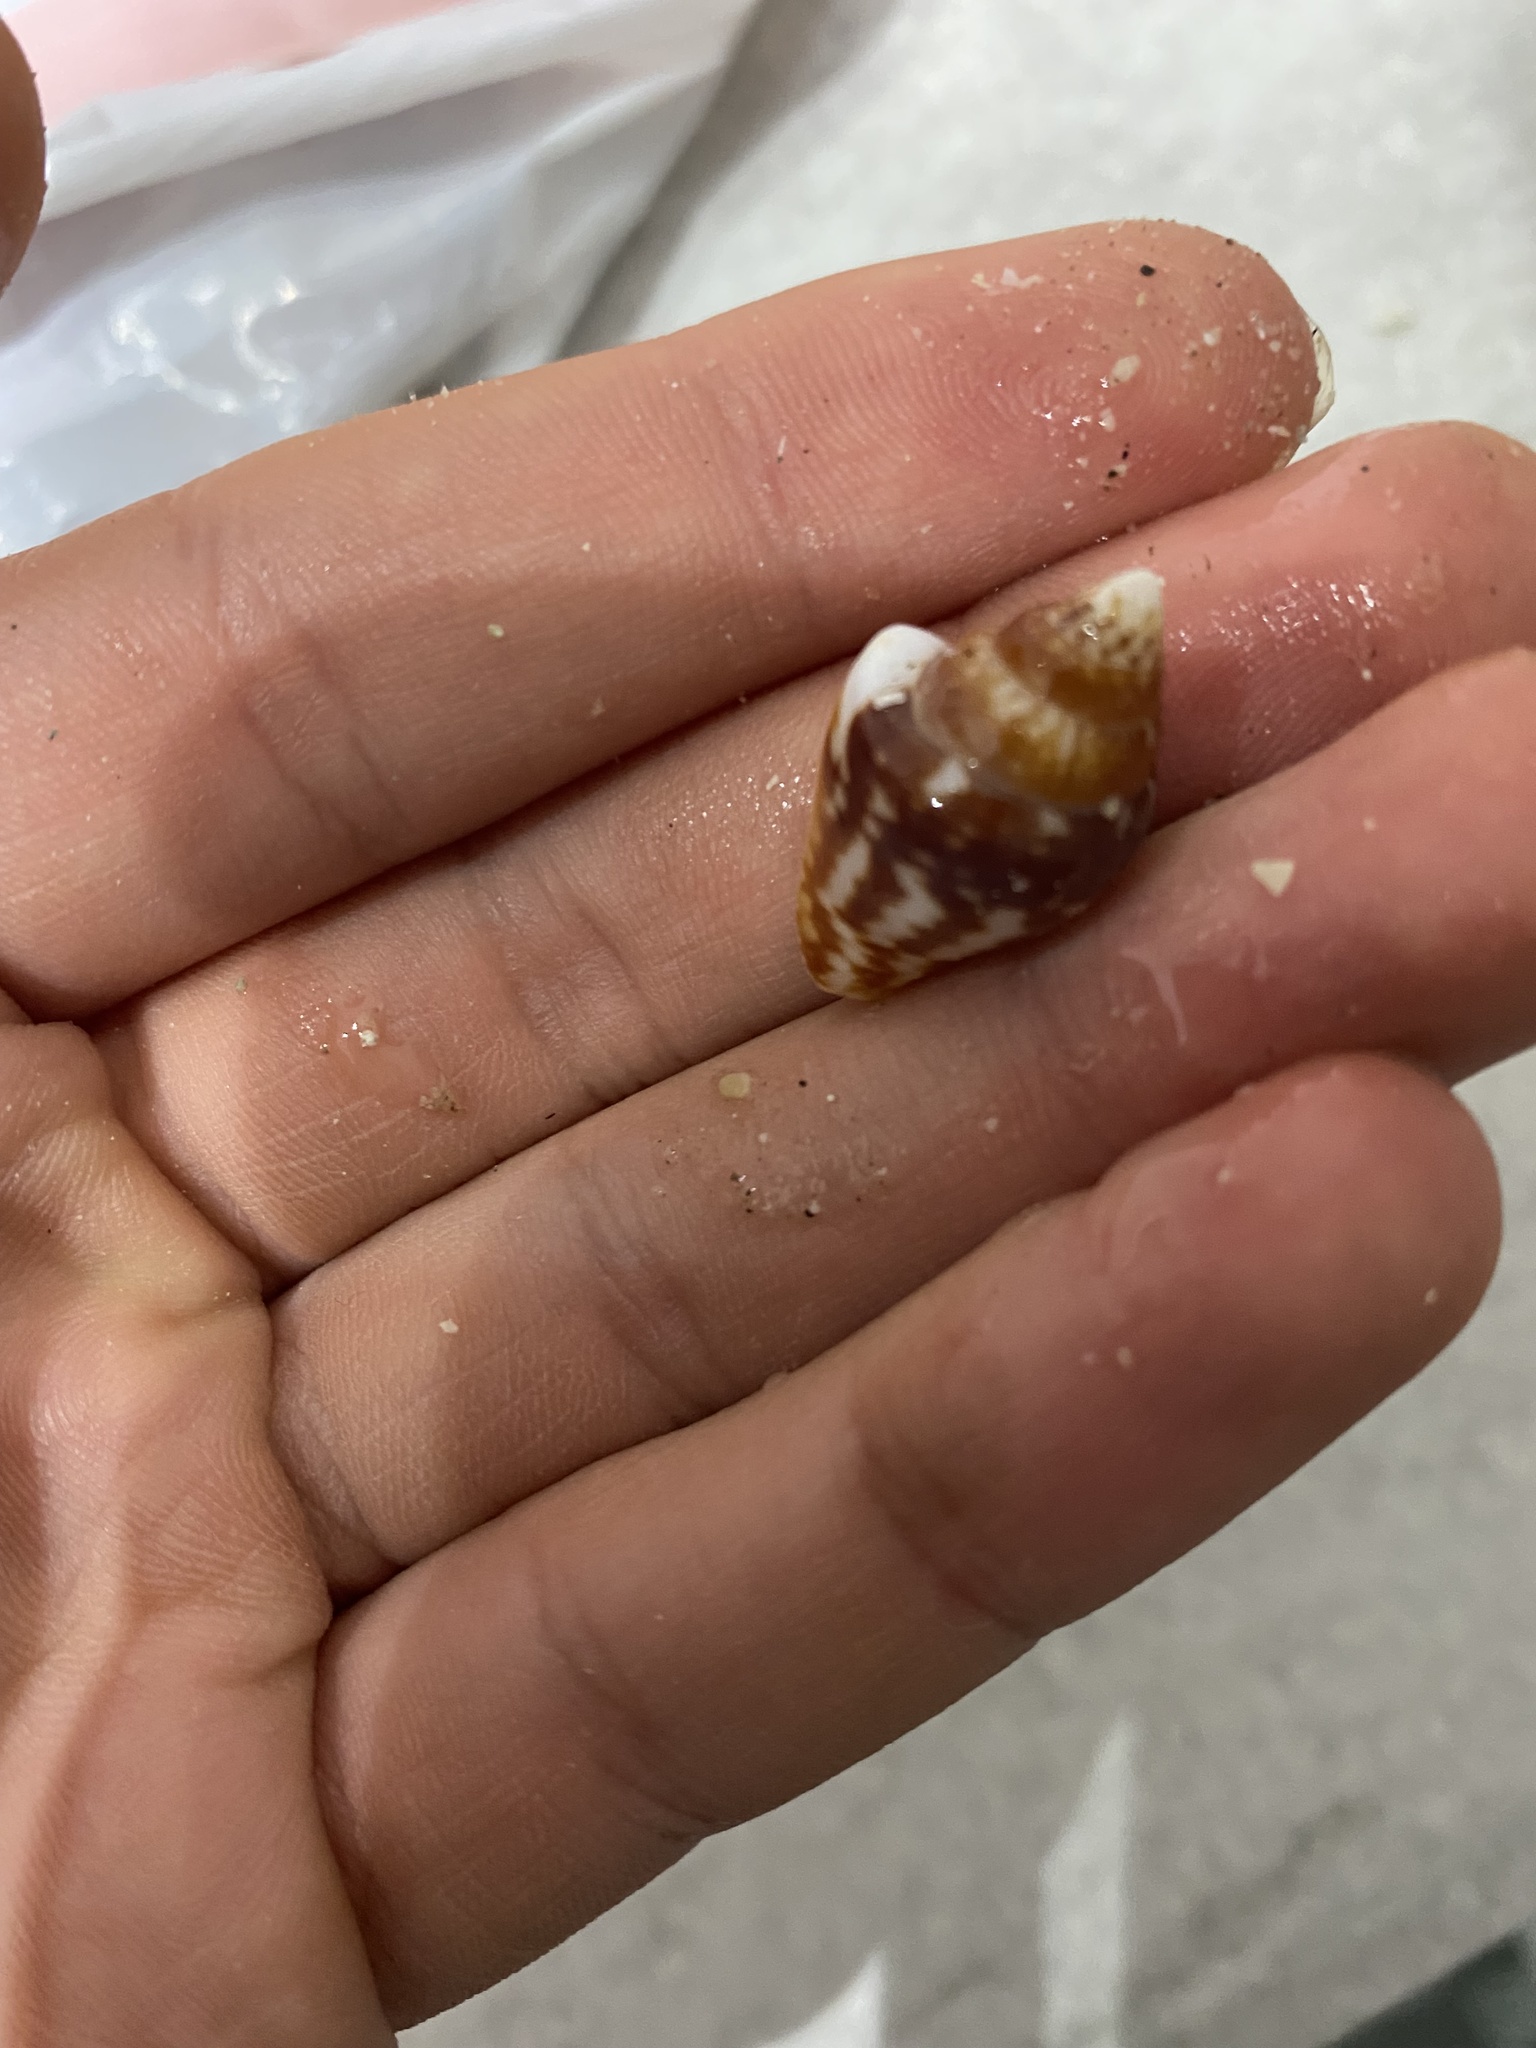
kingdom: Animalia
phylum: Mollusca
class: Gastropoda
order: Neogastropoda
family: Columbellidae
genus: Columbella
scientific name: Columbella strombiformis
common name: Stromboid dove shell
